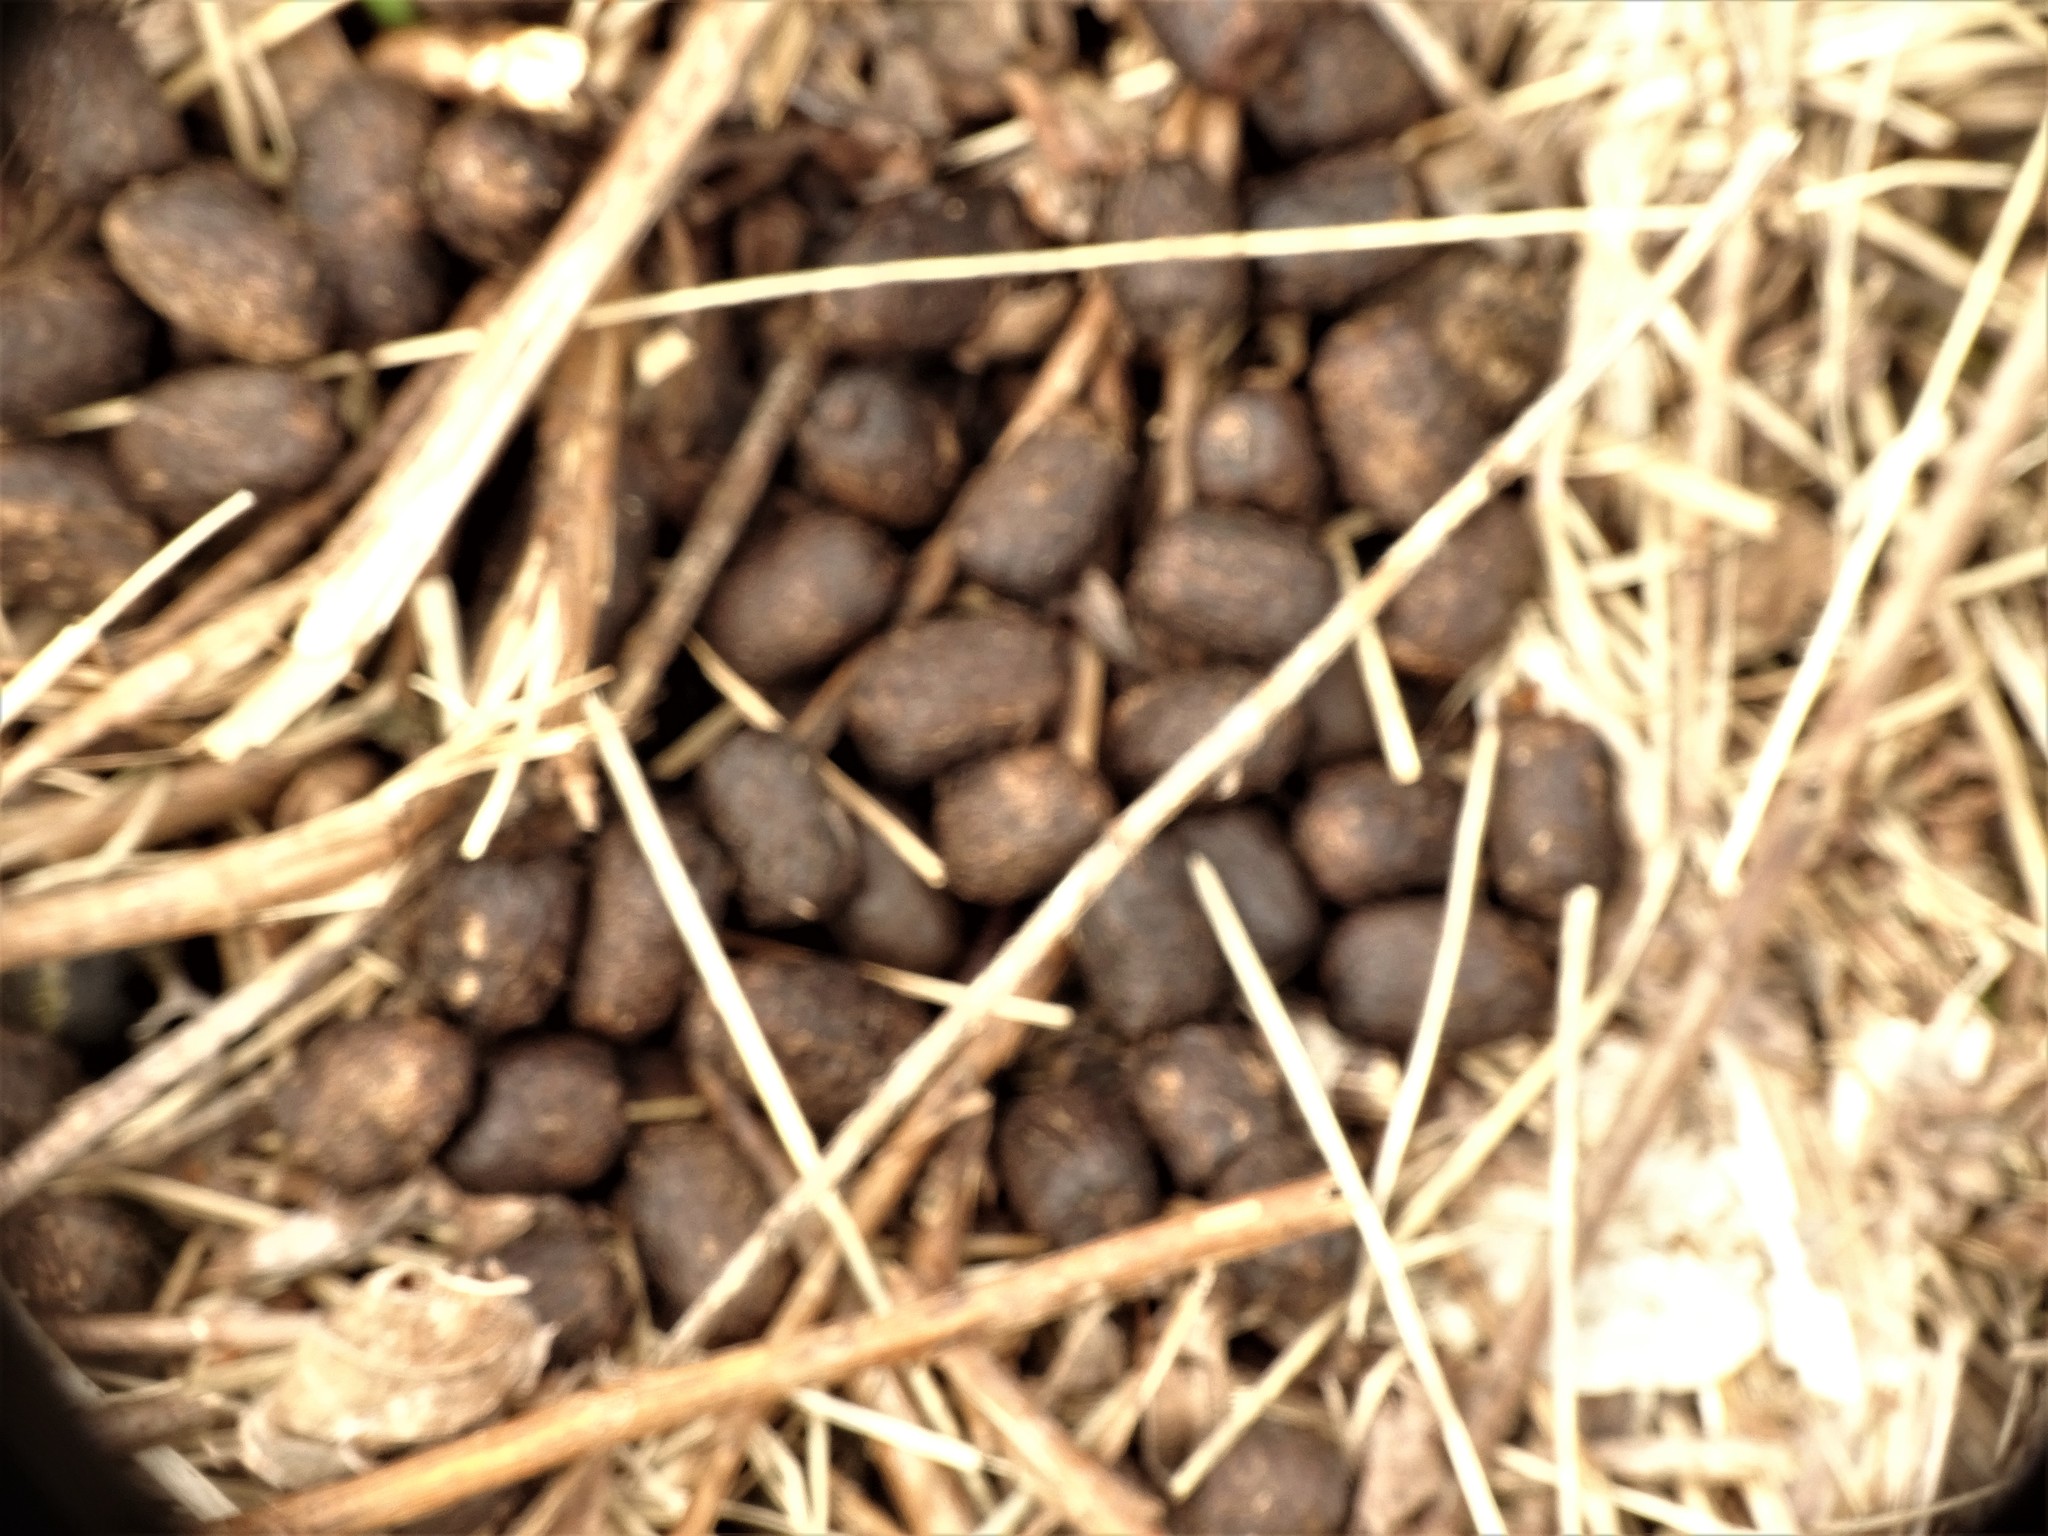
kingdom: Animalia
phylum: Chordata
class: Mammalia
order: Artiodactyla
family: Cervidae
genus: Odocoileus
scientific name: Odocoileus virginianus
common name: White-tailed deer
